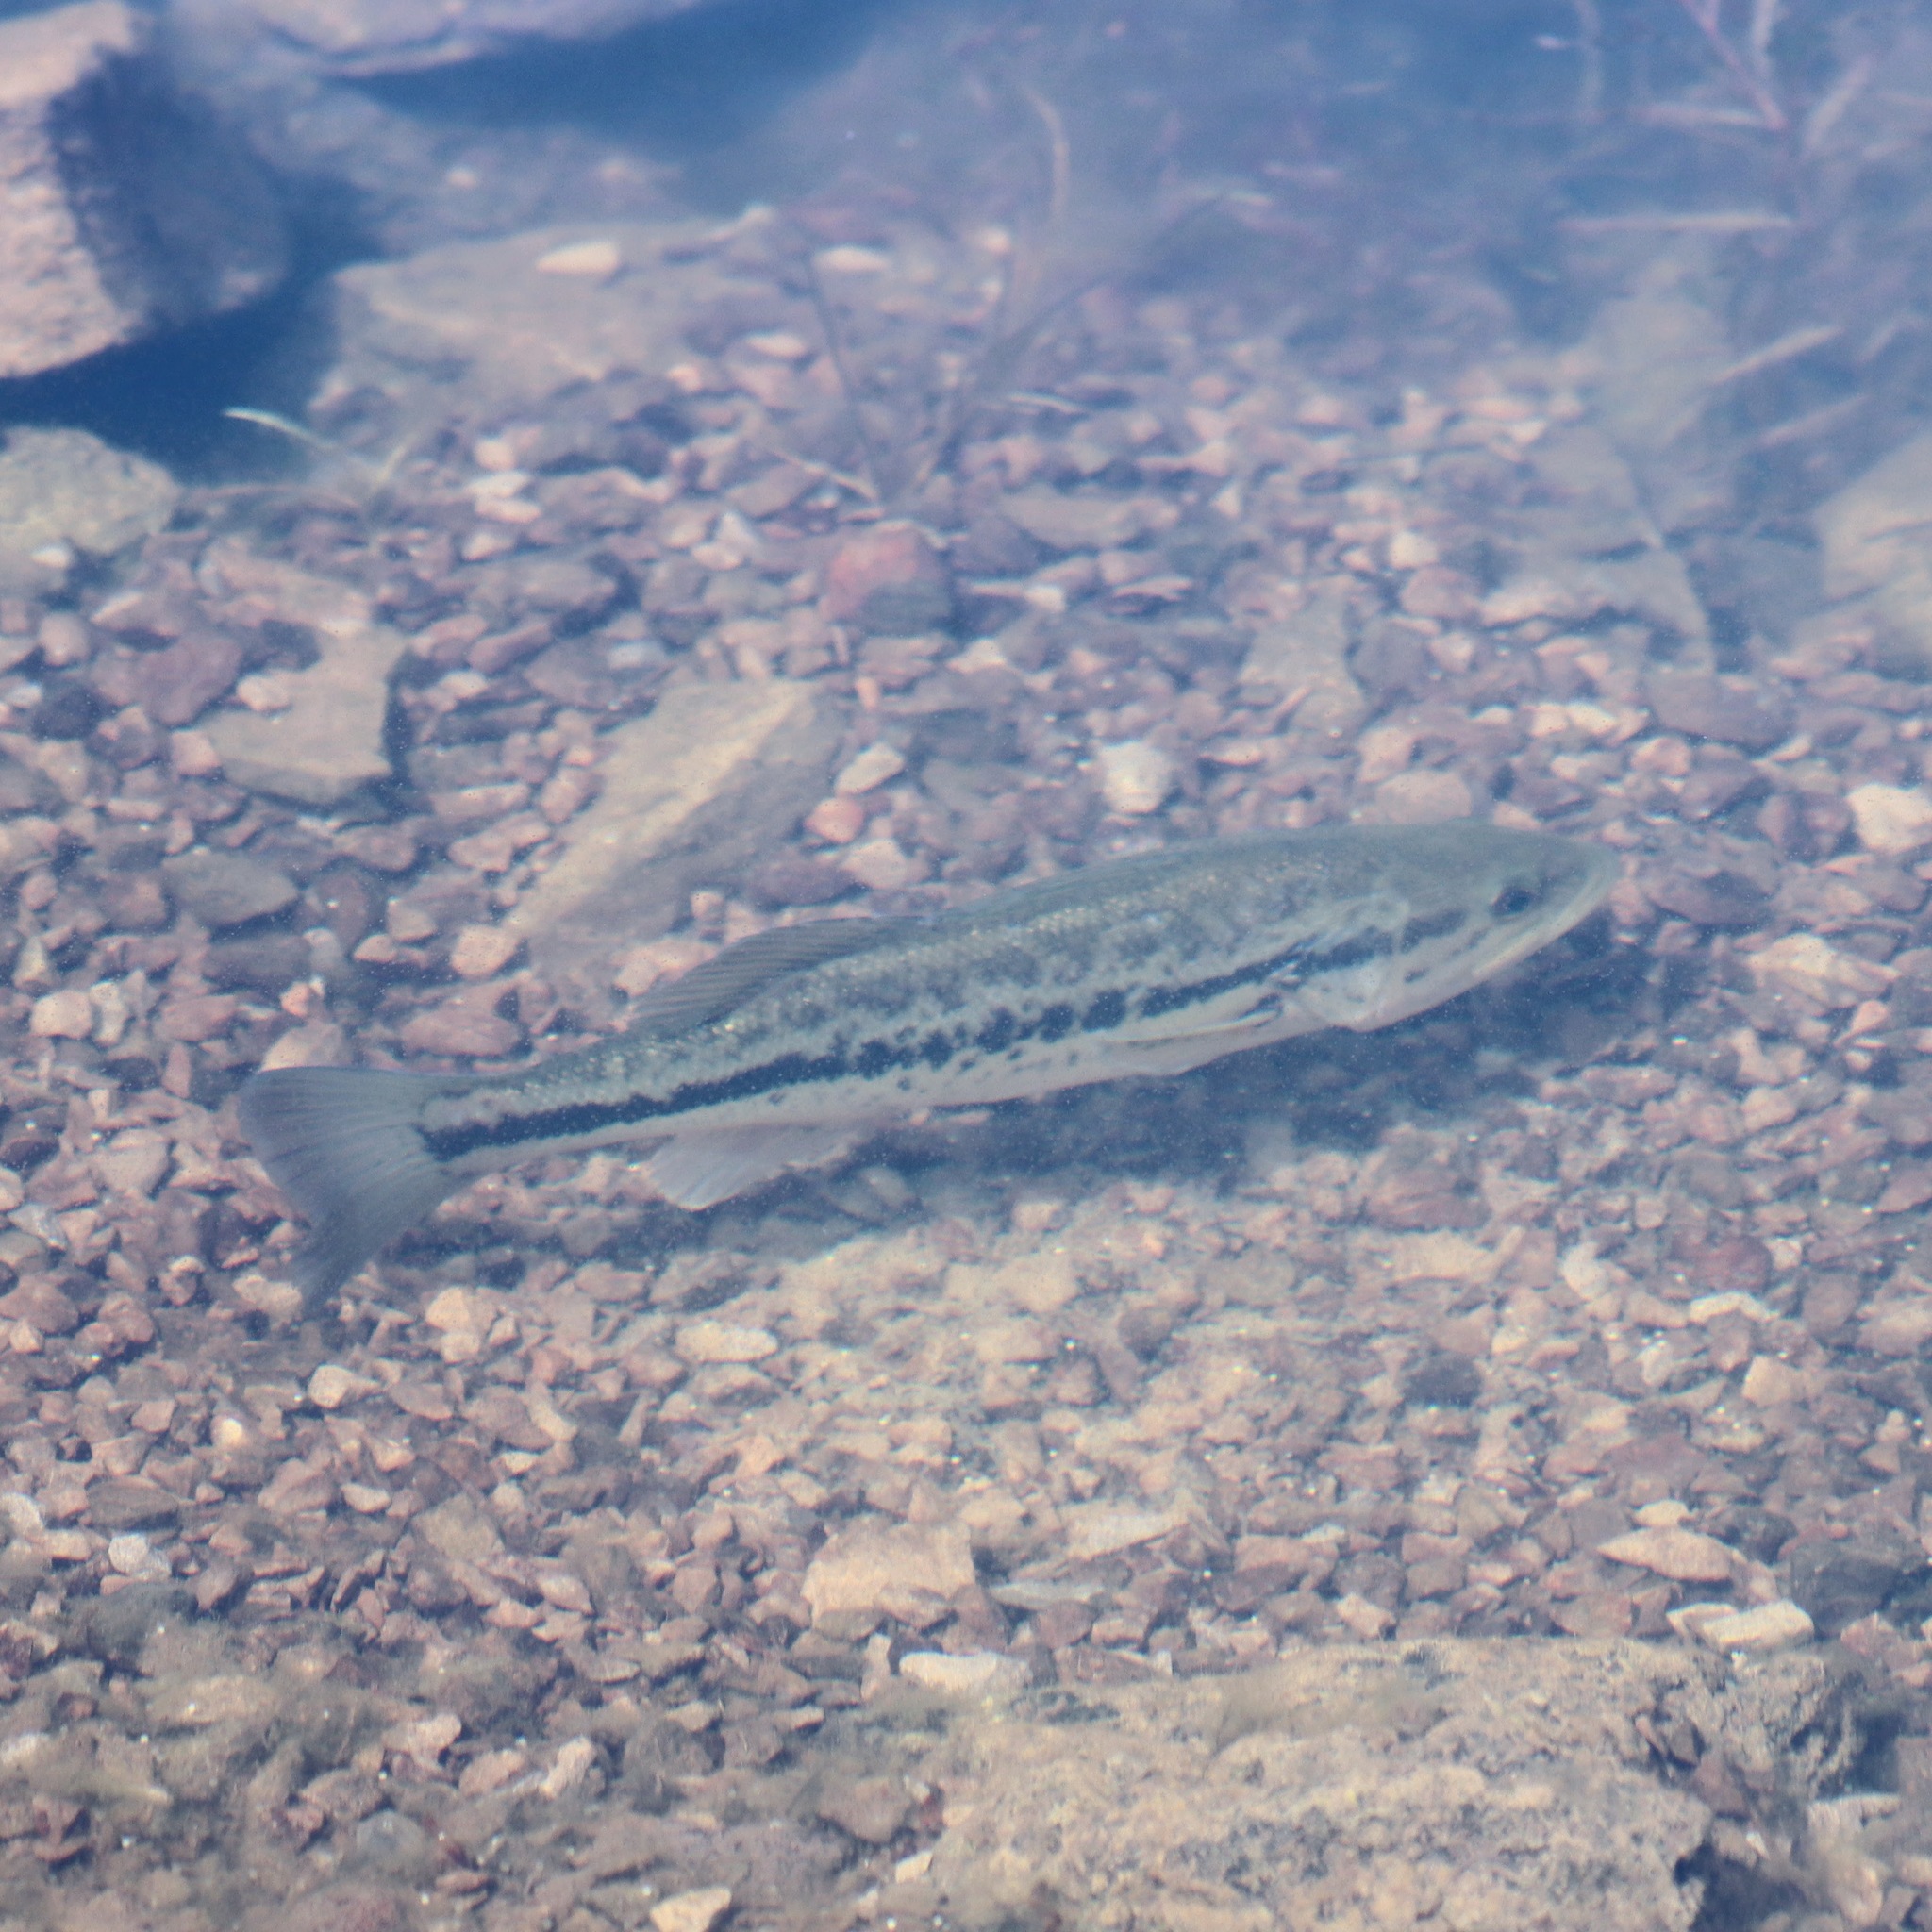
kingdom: Animalia
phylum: Chordata
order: Perciformes
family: Centrarchidae
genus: Micropterus
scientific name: Micropterus
